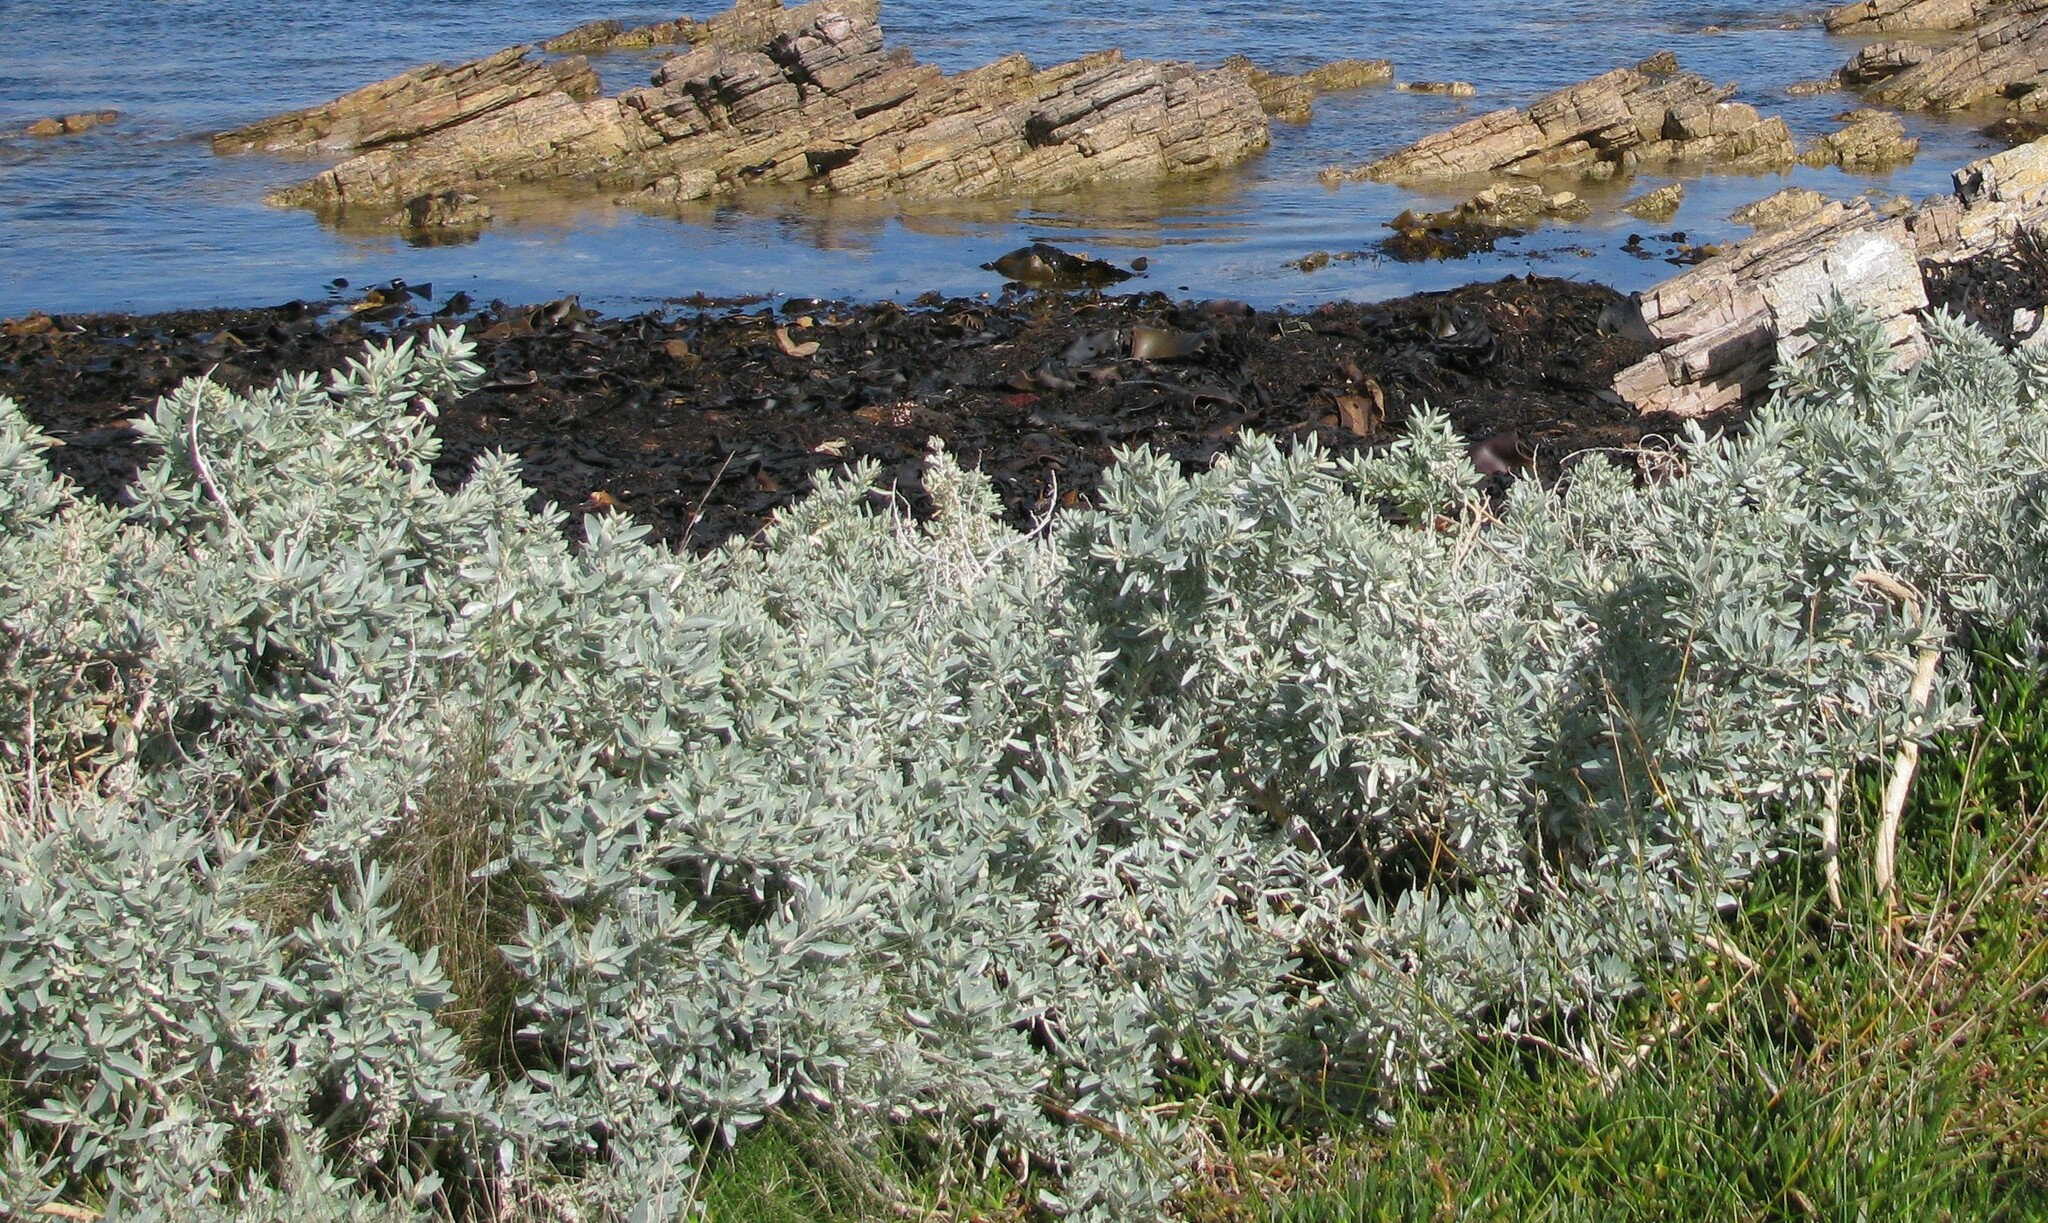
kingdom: Plantae
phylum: Tracheophyta
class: Magnoliopsida
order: Caryophyllales
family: Amaranthaceae
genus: Atriplex
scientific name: Atriplex cinerea
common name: Grey saltbush
